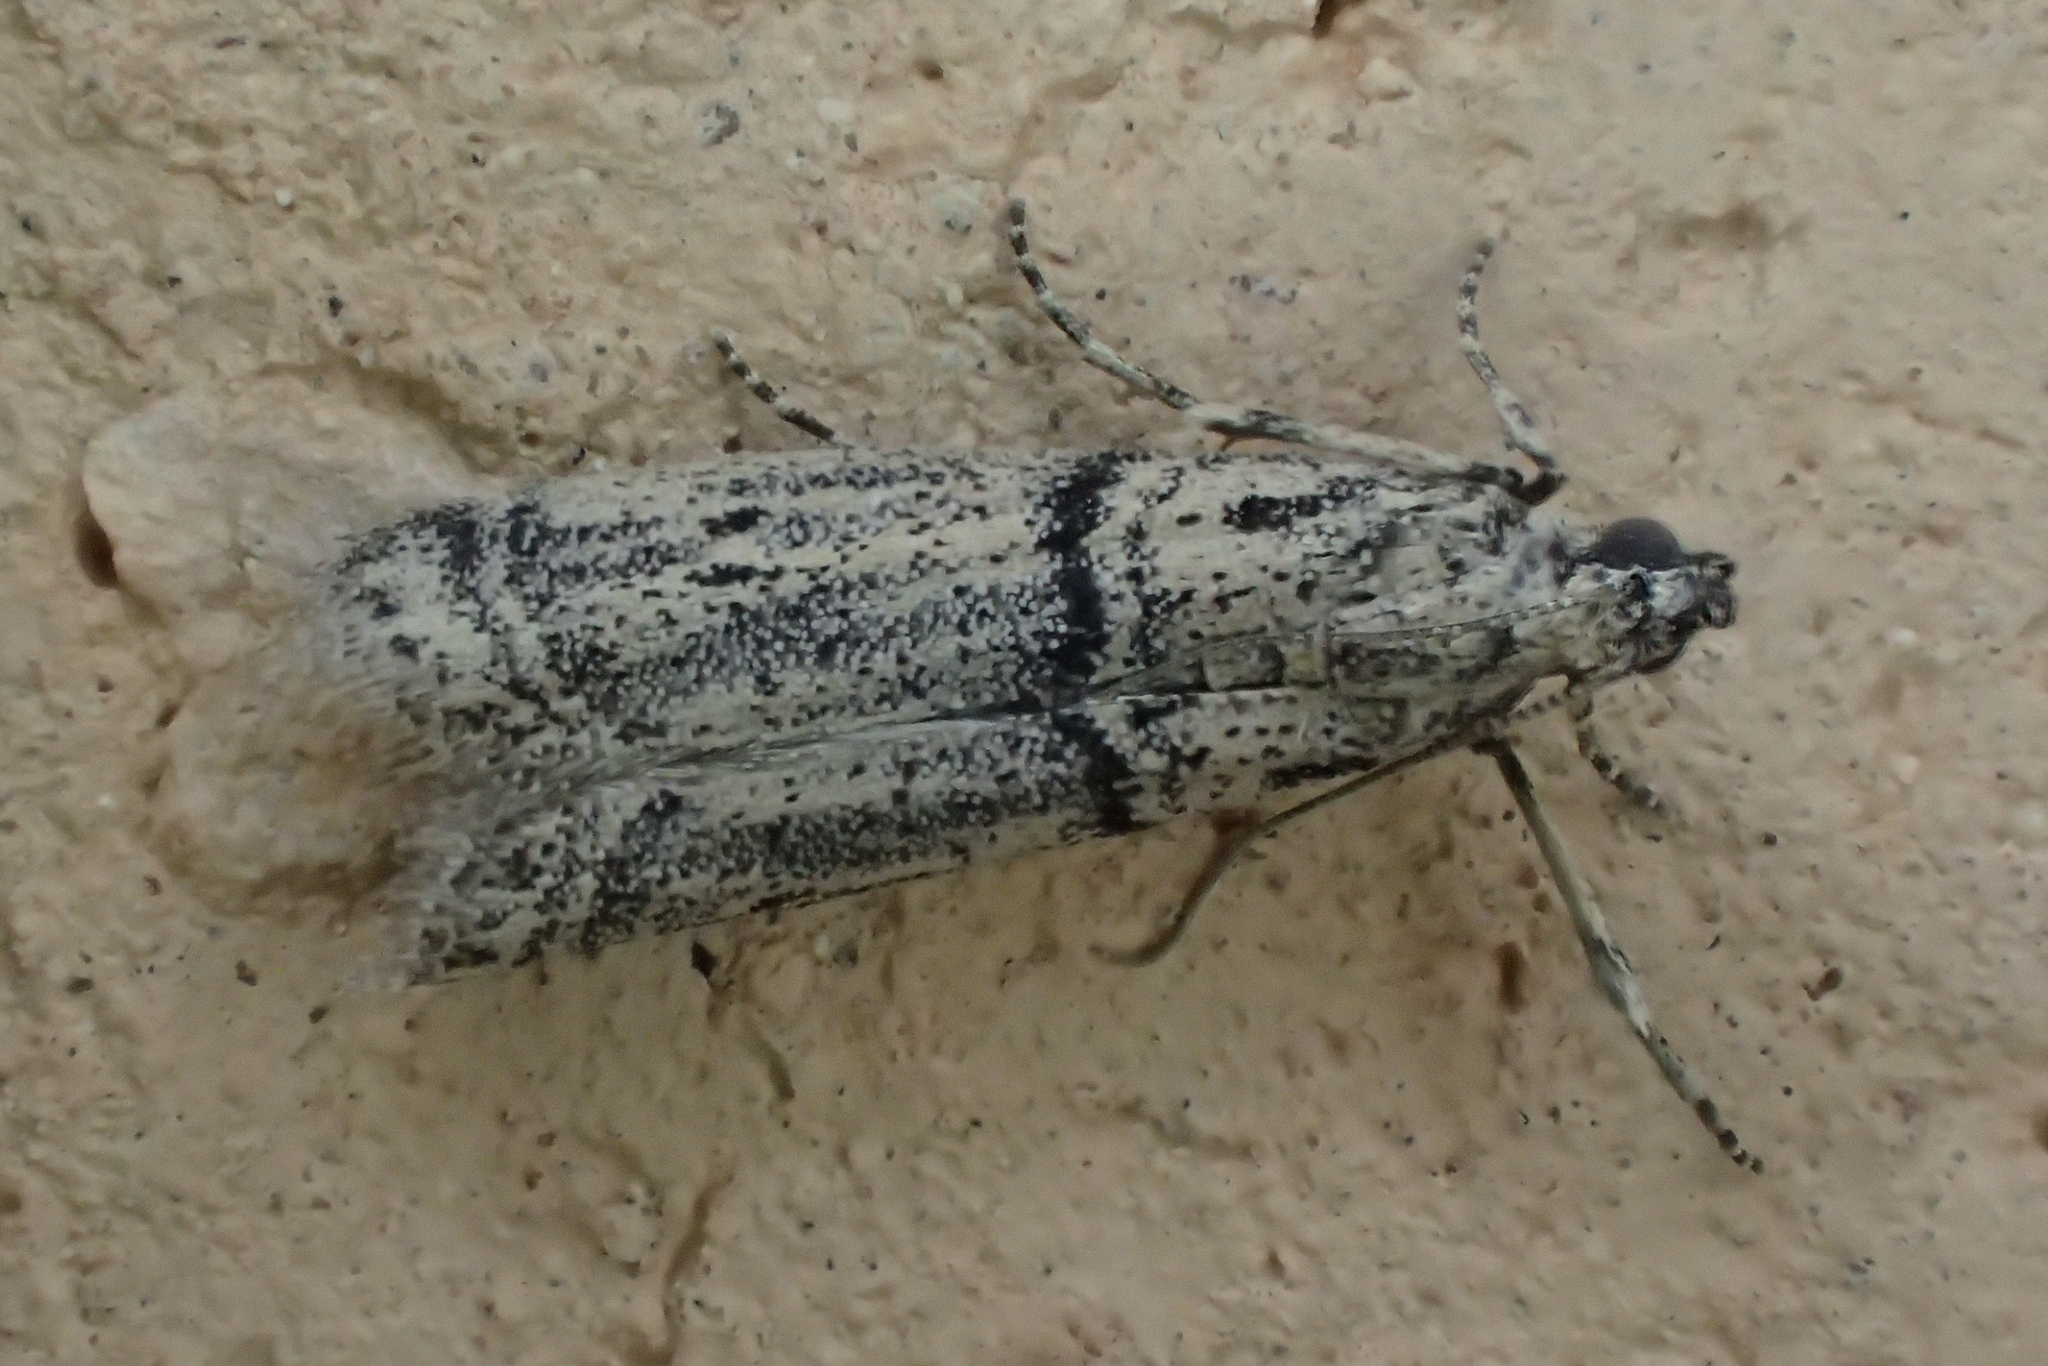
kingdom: Animalia
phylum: Arthropoda
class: Insecta
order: Lepidoptera
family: Pyralidae
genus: Archiephestia
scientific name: Archiephestia adpiscinella
